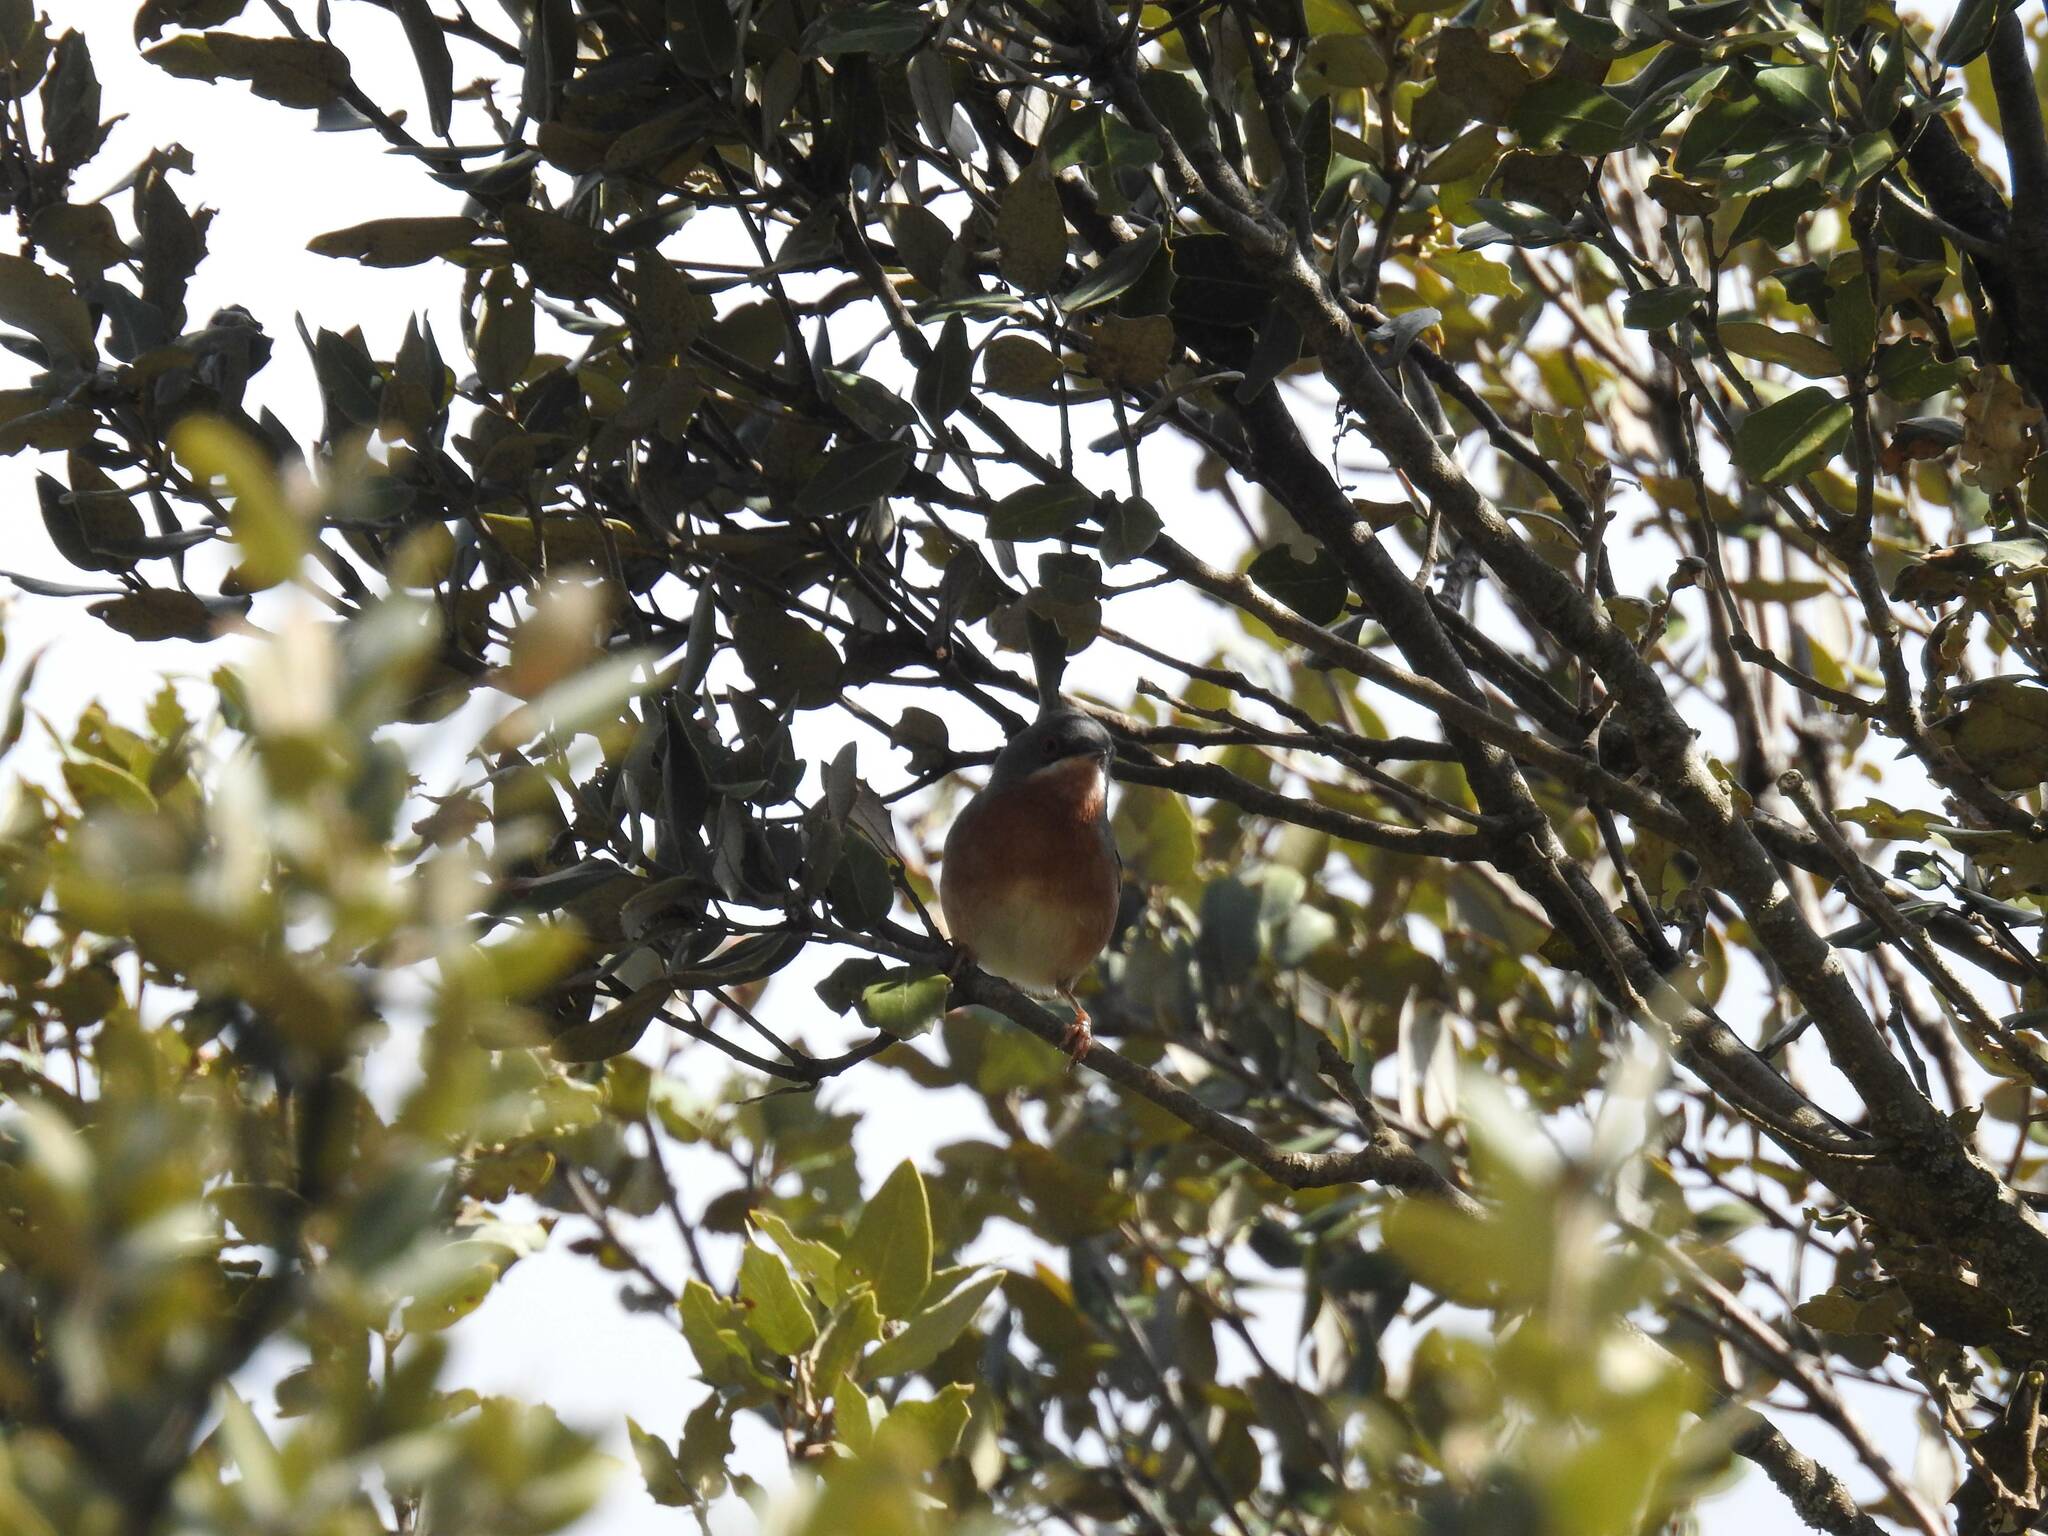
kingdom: Animalia
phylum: Chordata
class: Aves
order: Passeriformes
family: Sylviidae
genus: Curruca
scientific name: Curruca iberiae
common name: Western subalpine warbler
